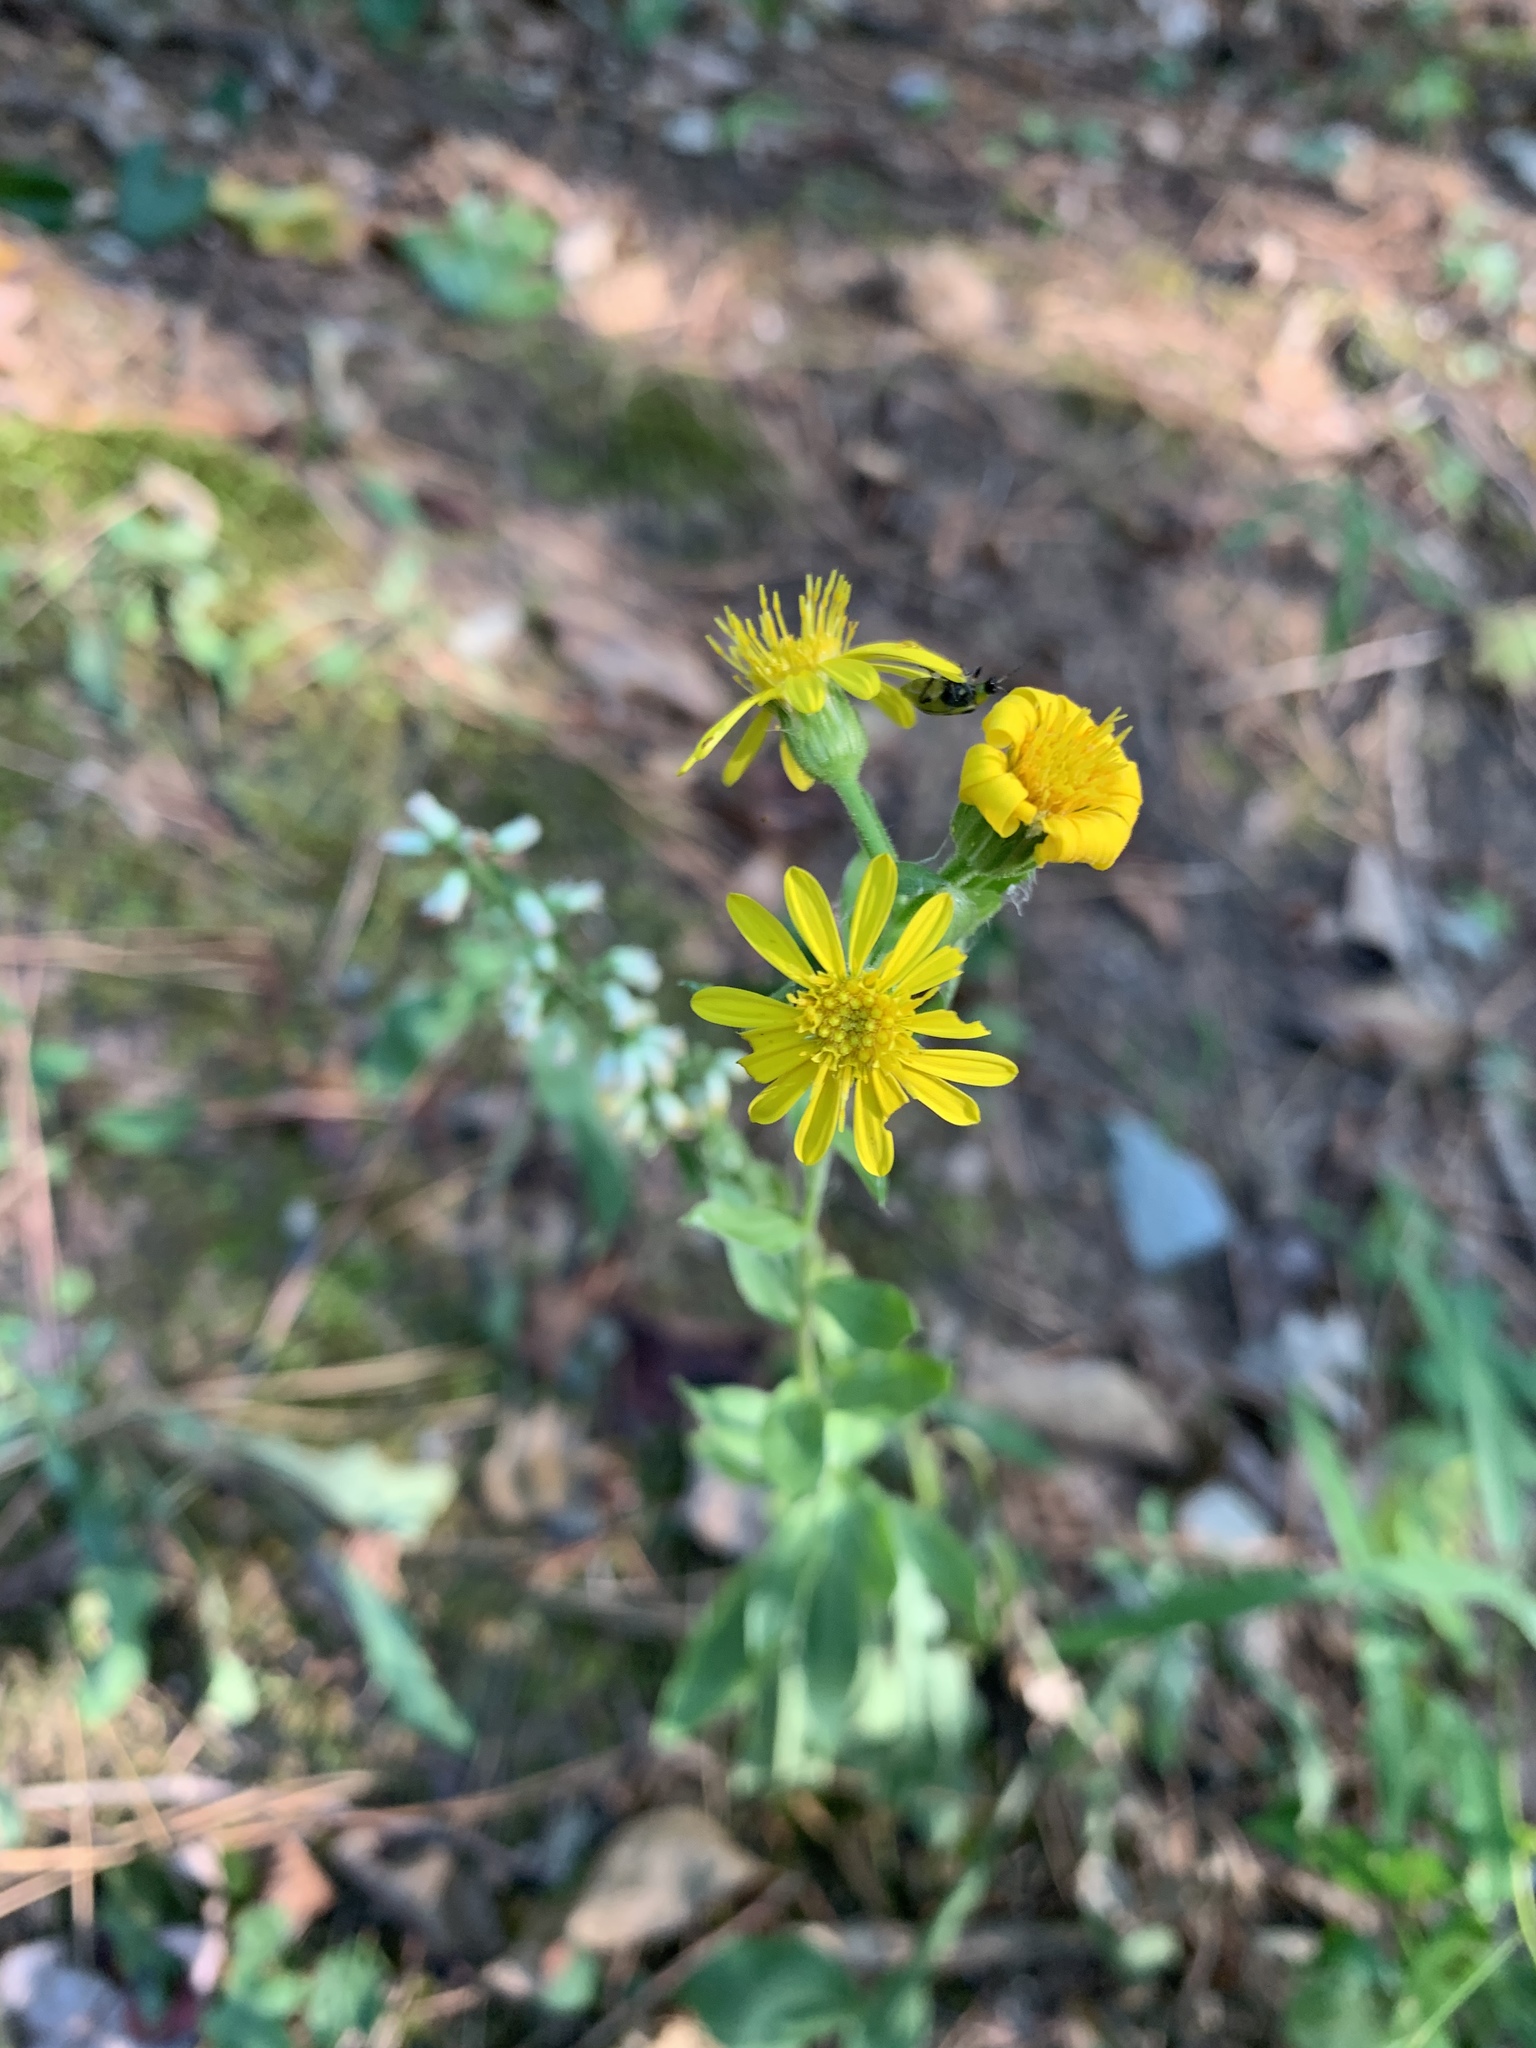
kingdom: Plantae
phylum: Tracheophyta
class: Magnoliopsida
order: Asterales
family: Asteraceae
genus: Chrysopsis
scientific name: Chrysopsis mariana
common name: Maryland golden-aster
